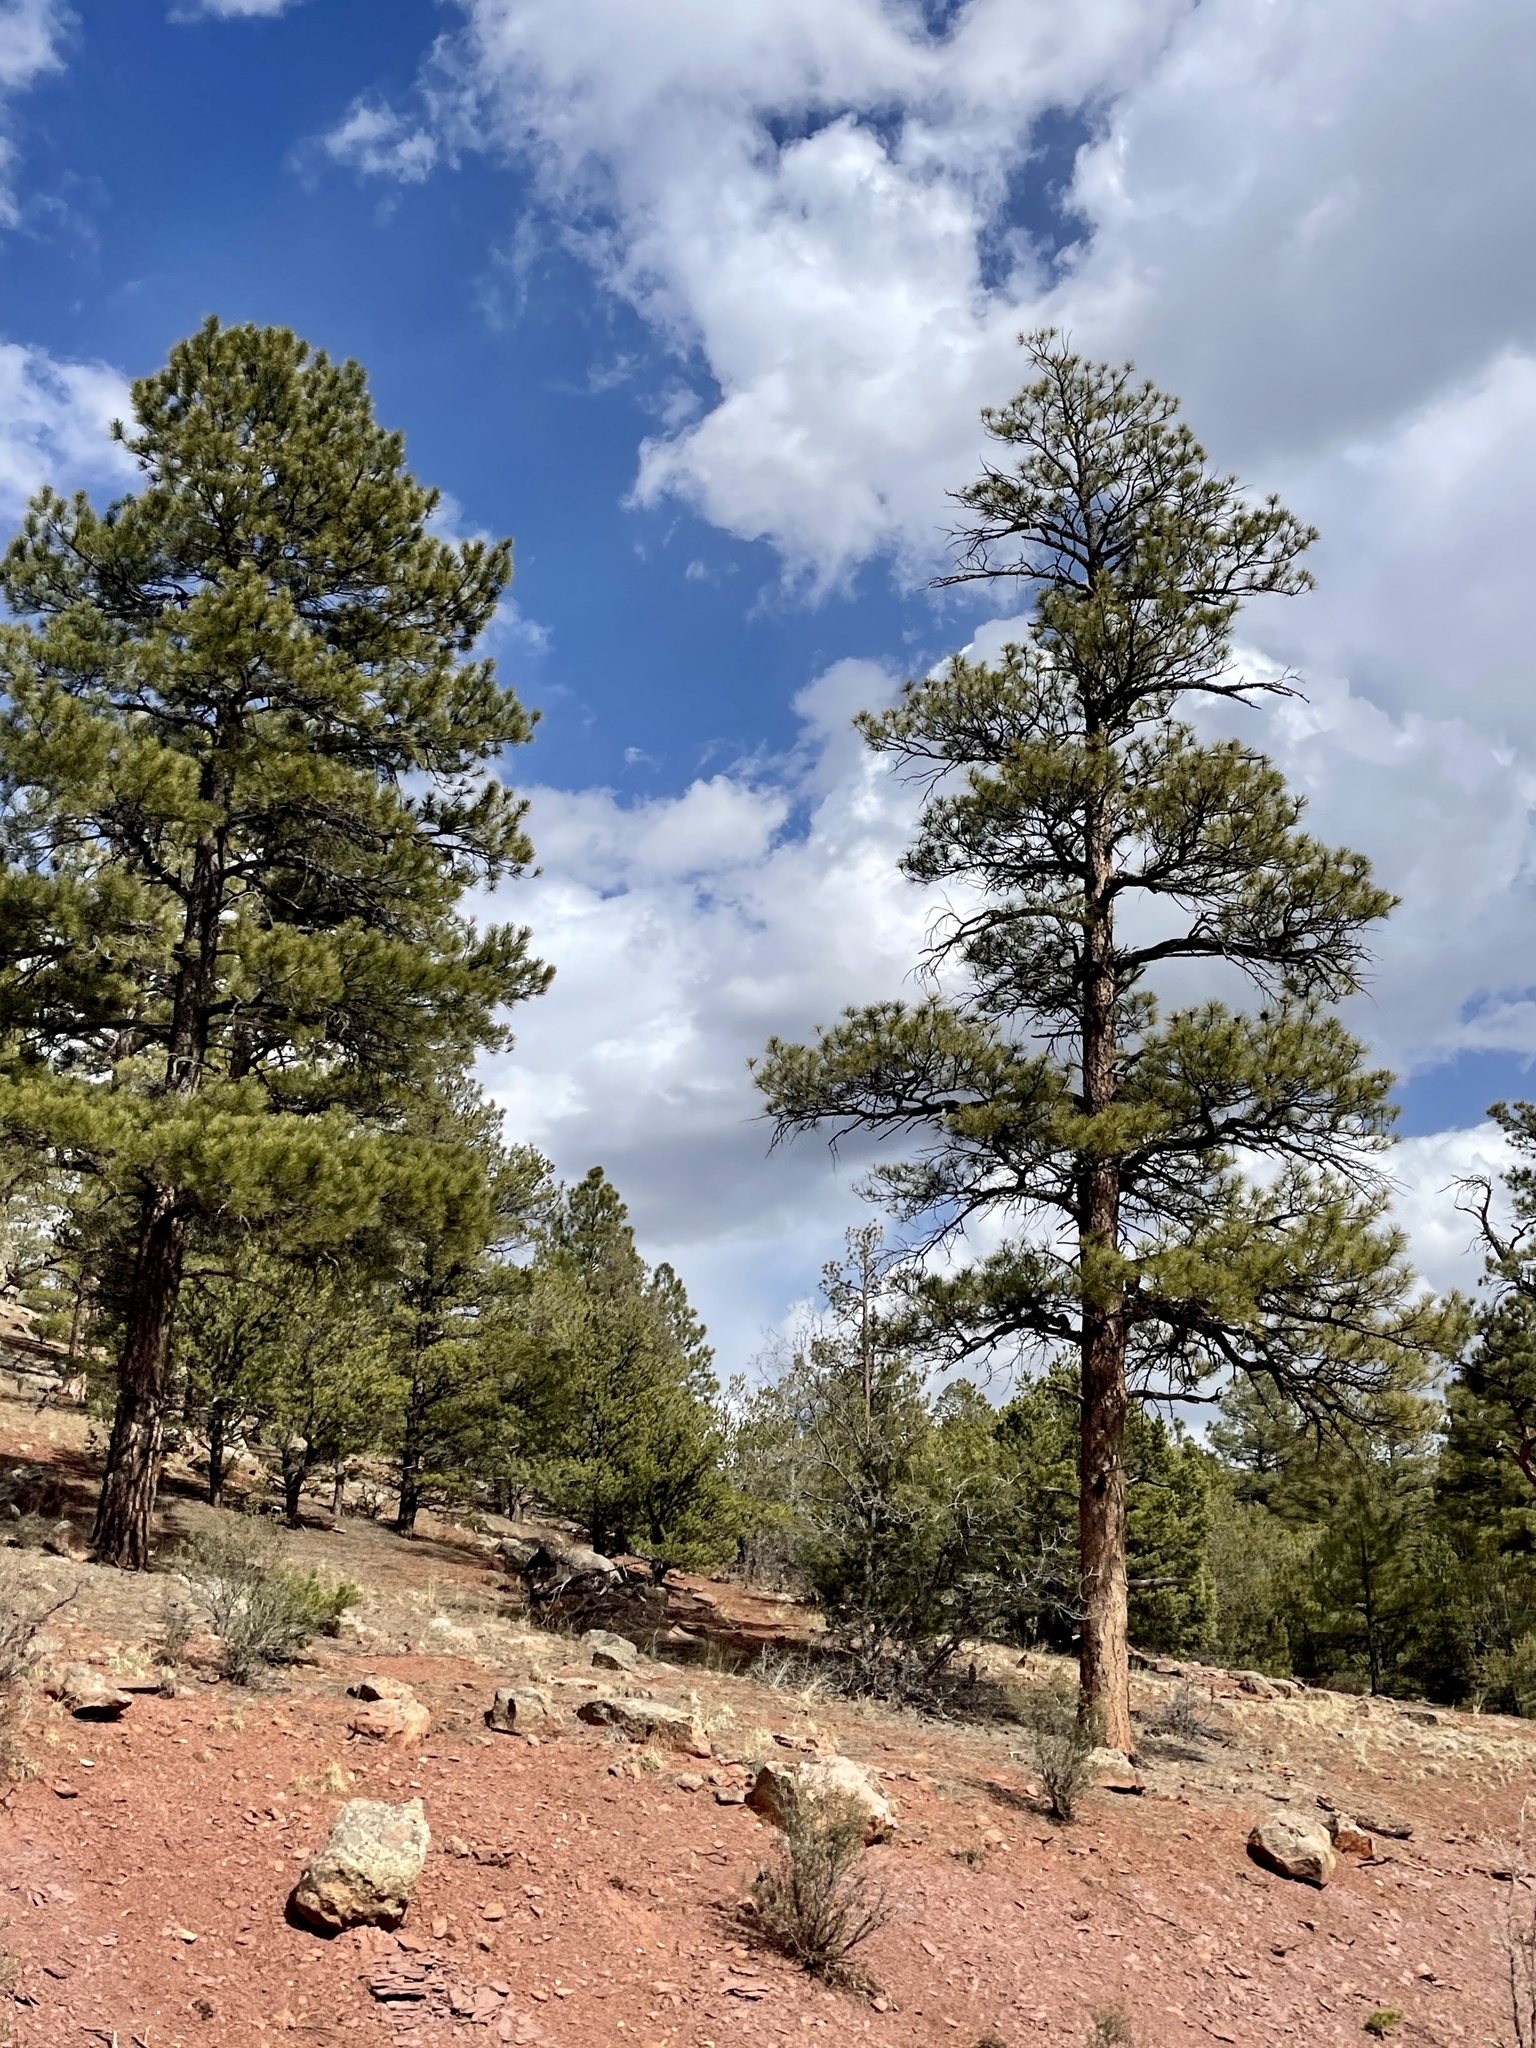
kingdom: Plantae
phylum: Tracheophyta
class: Pinopsida
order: Pinales
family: Pinaceae
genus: Pinus
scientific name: Pinus ponderosa
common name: Western yellow-pine
